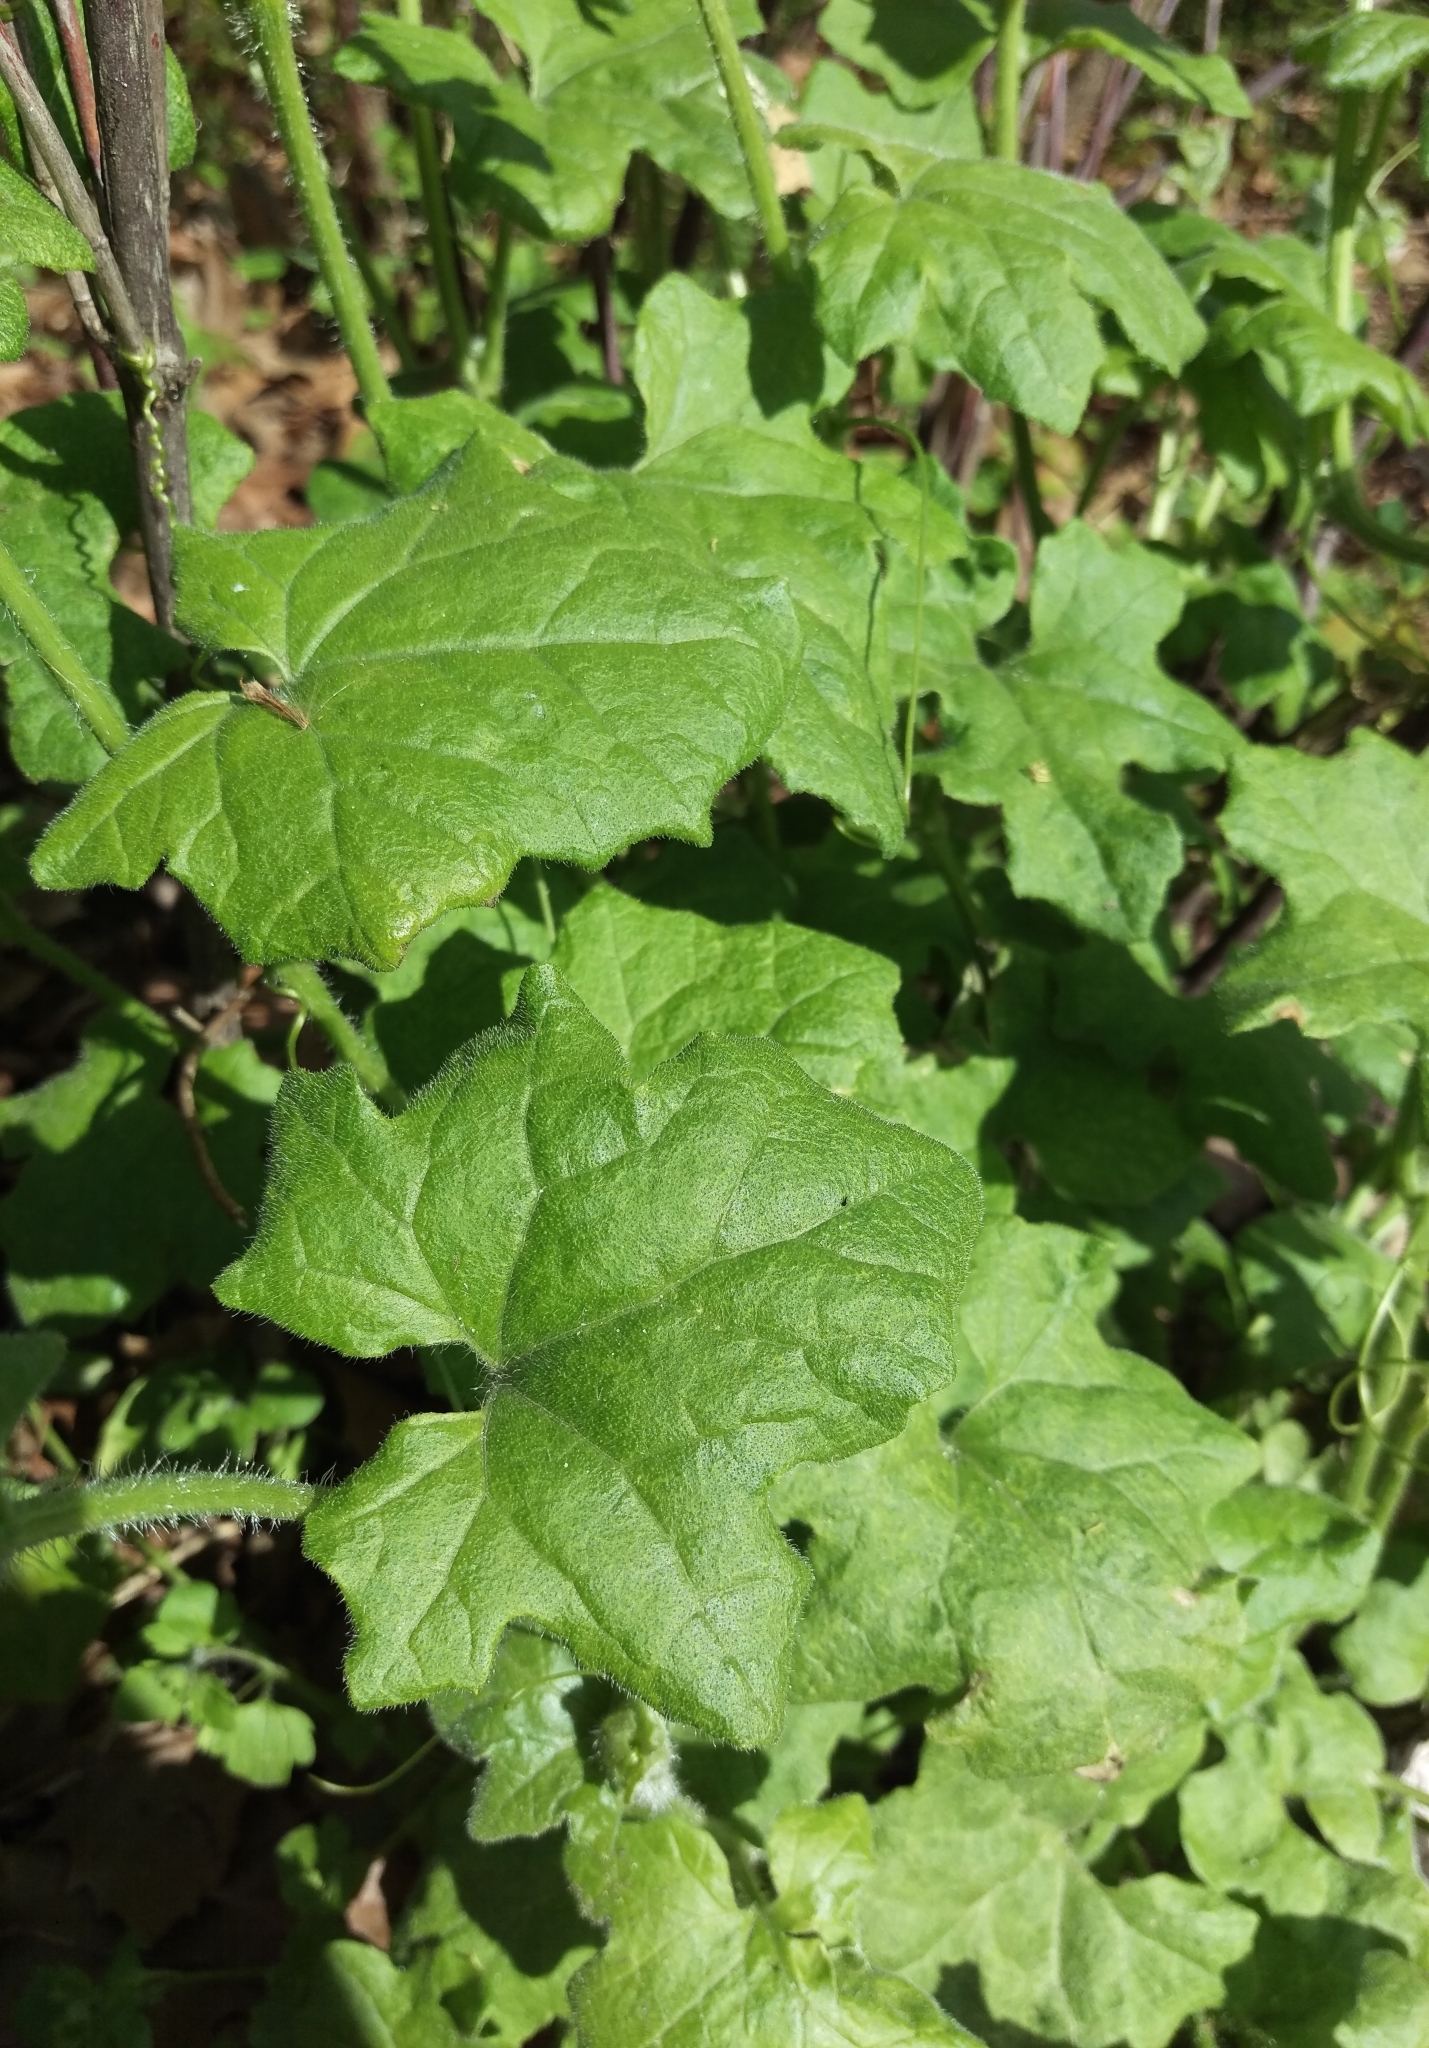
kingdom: Plantae
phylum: Tracheophyta
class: Magnoliopsida
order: Cucurbitales
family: Cucurbitaceae
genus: Bryonia
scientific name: Bryonia cretica
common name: Cretan bryony
